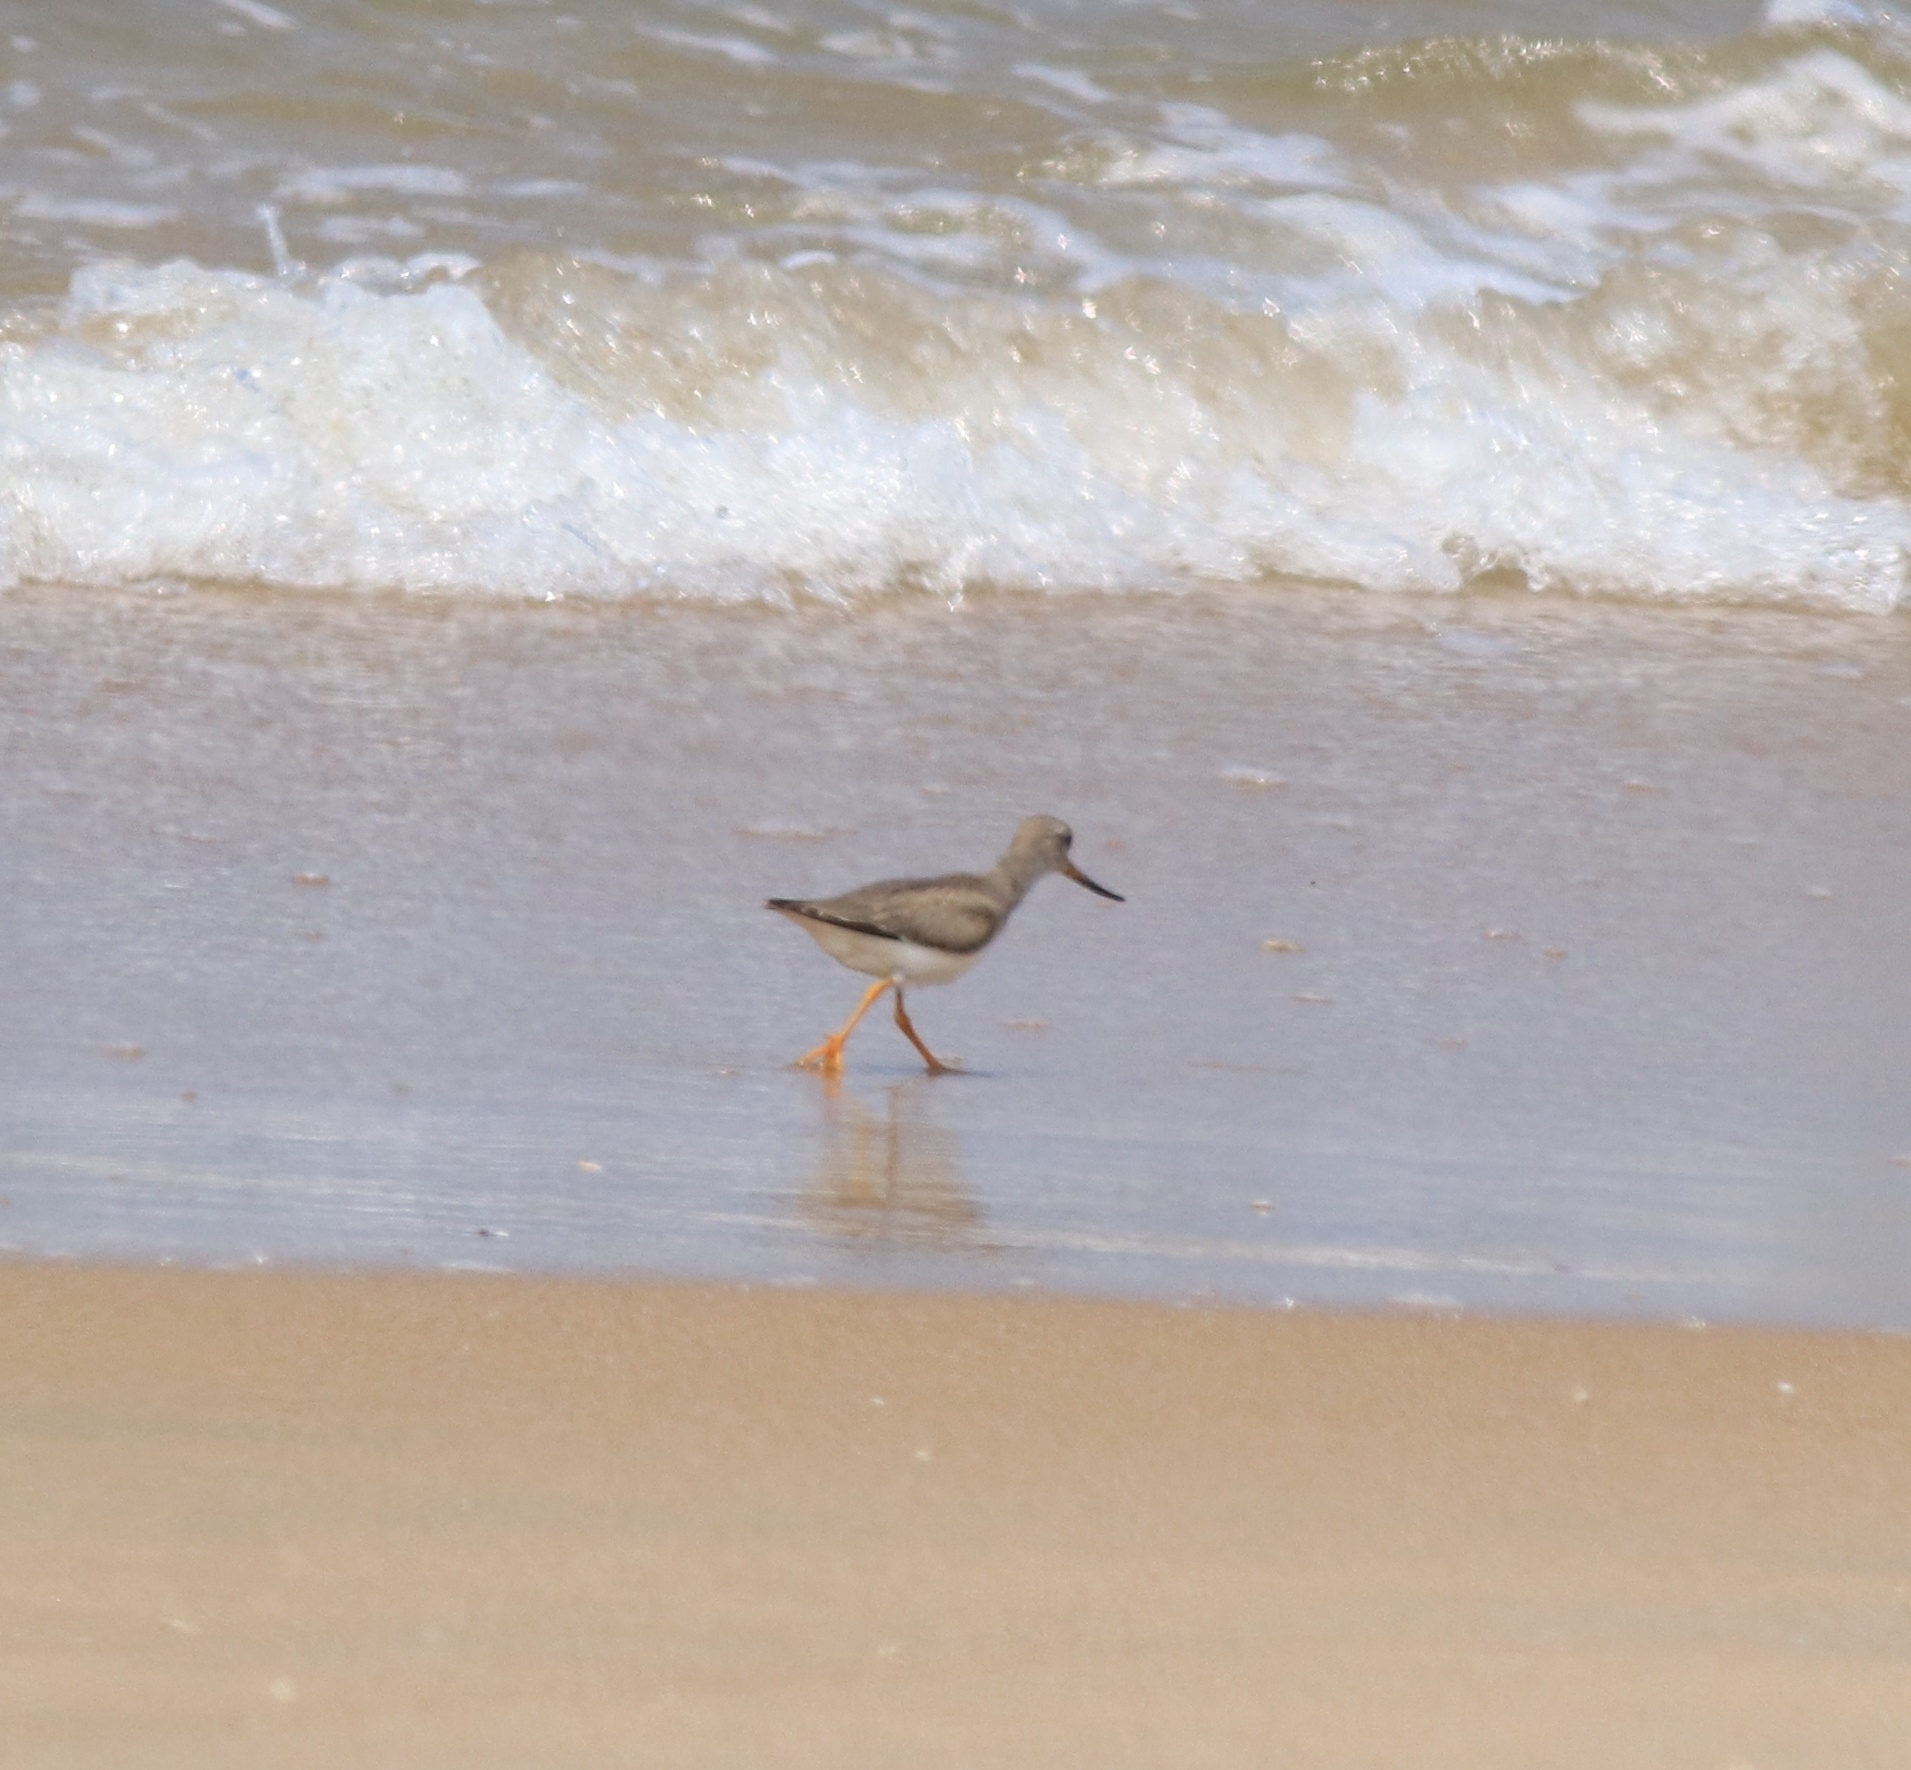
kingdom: Animalia
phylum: Chordata
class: Aves
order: Charadriiformes
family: Scolopacidae
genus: Xenus
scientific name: Xenus cinereus
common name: Terek sandpiper
